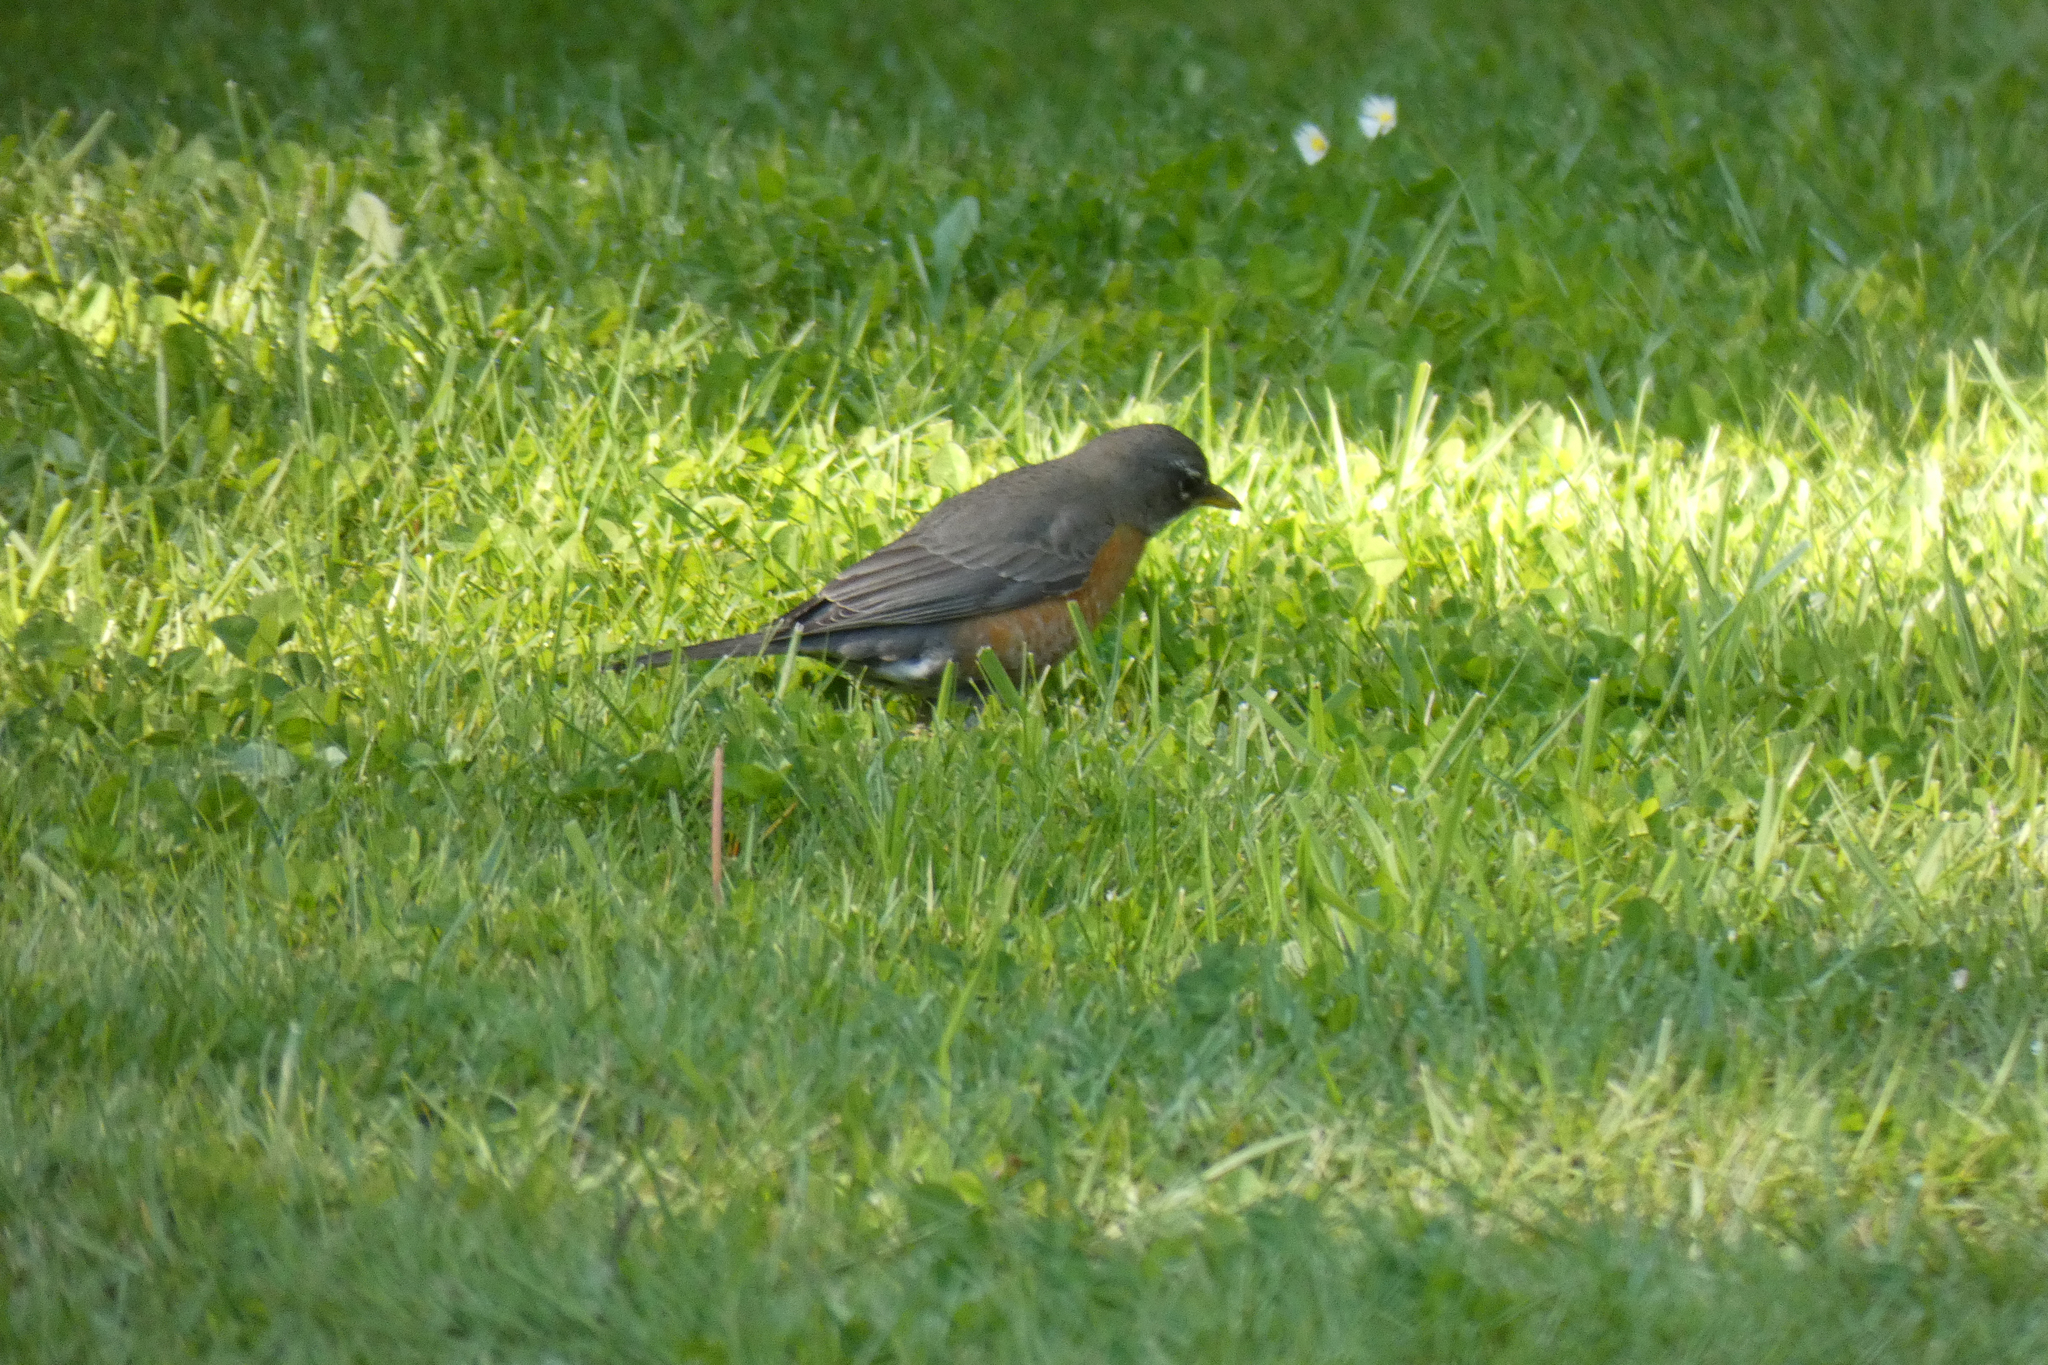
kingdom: Animalia
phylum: Chordata
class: Aves
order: Passeriformes
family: Turdidae
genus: Turdus
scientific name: Turdus migratorius
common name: American robin
